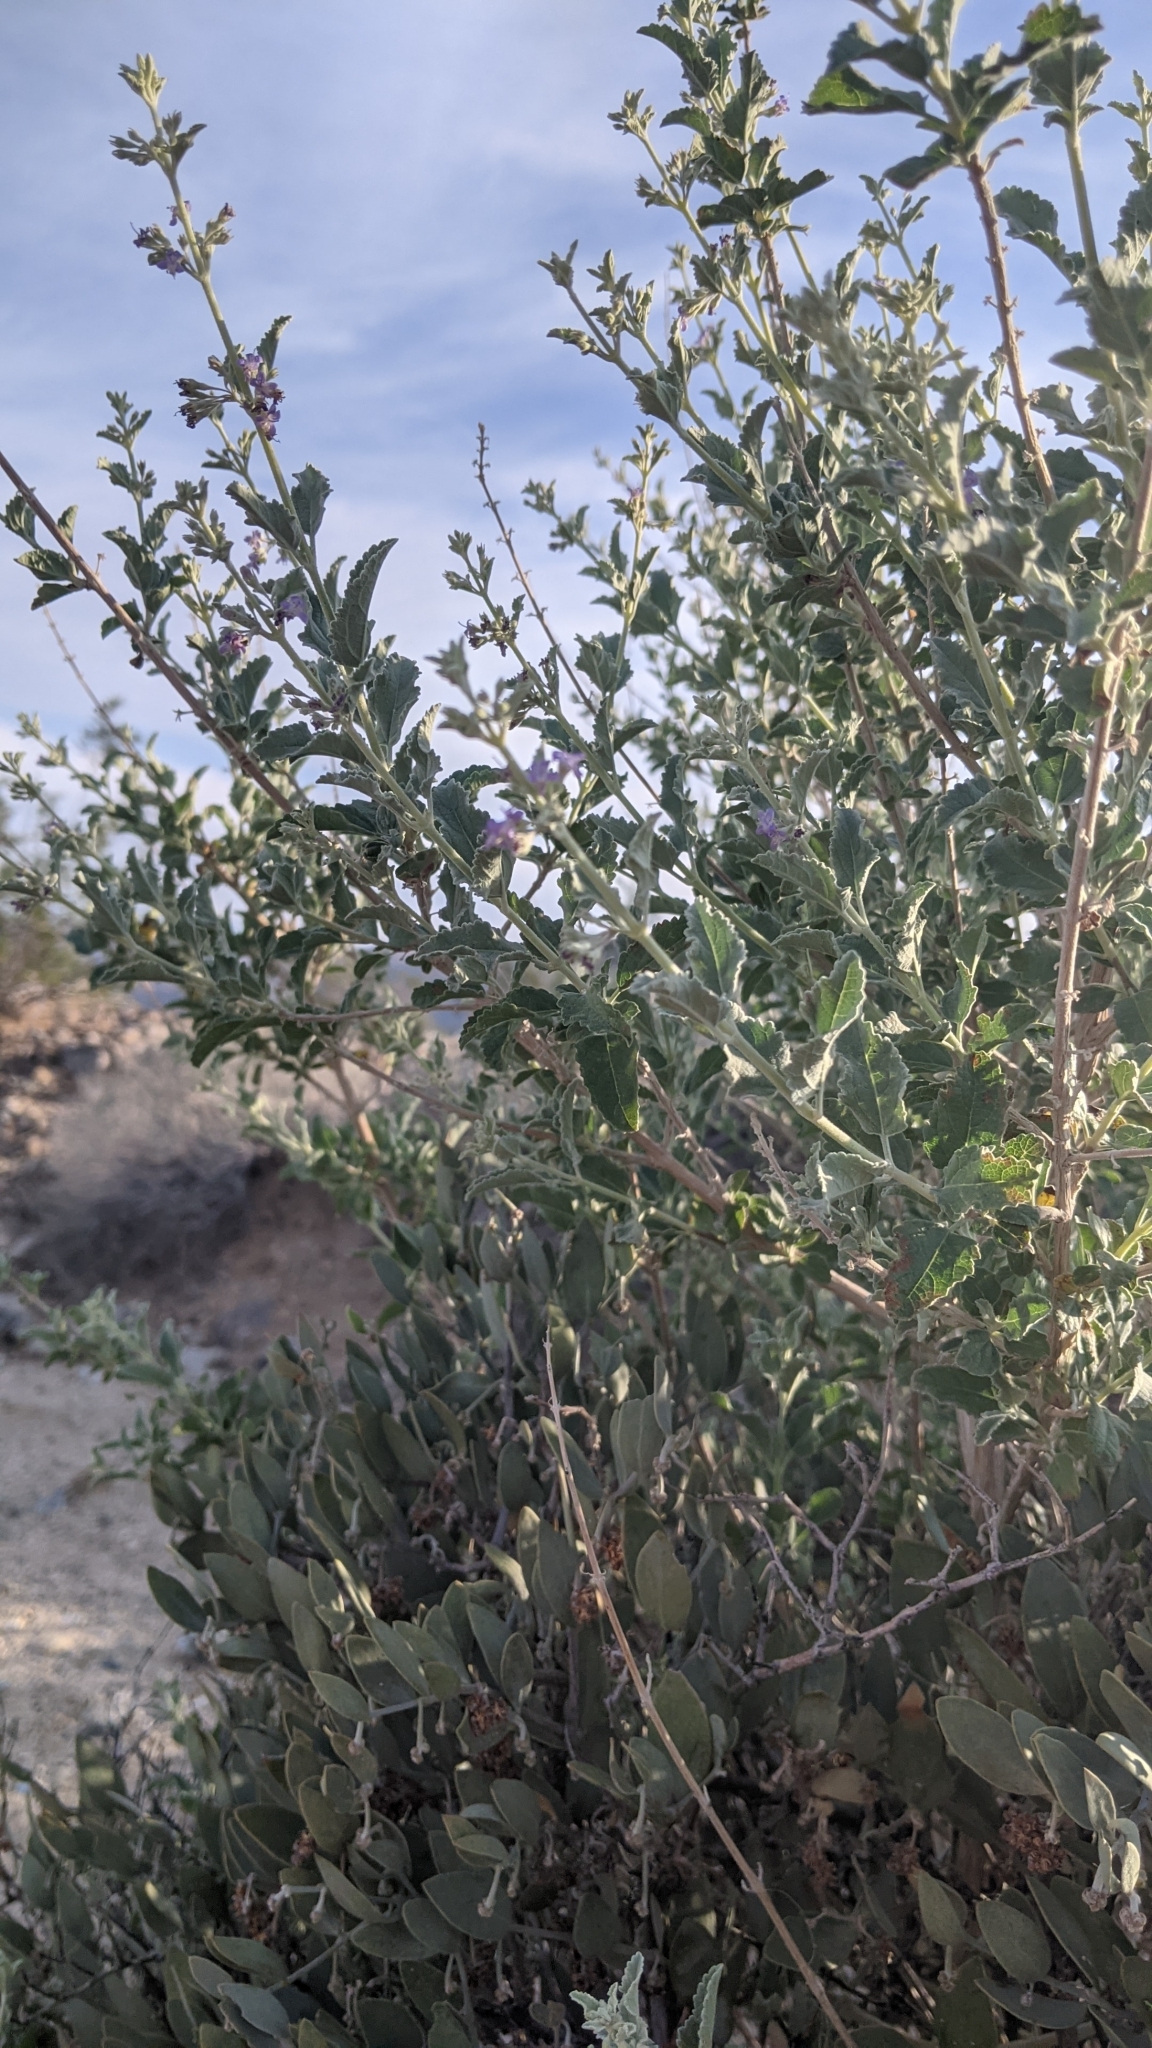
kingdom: Plantae
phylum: Tracheophyta
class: Magnoliopsida
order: Lamiales
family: Lamiaceae
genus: Condea
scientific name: Condea emoryi
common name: Chia
